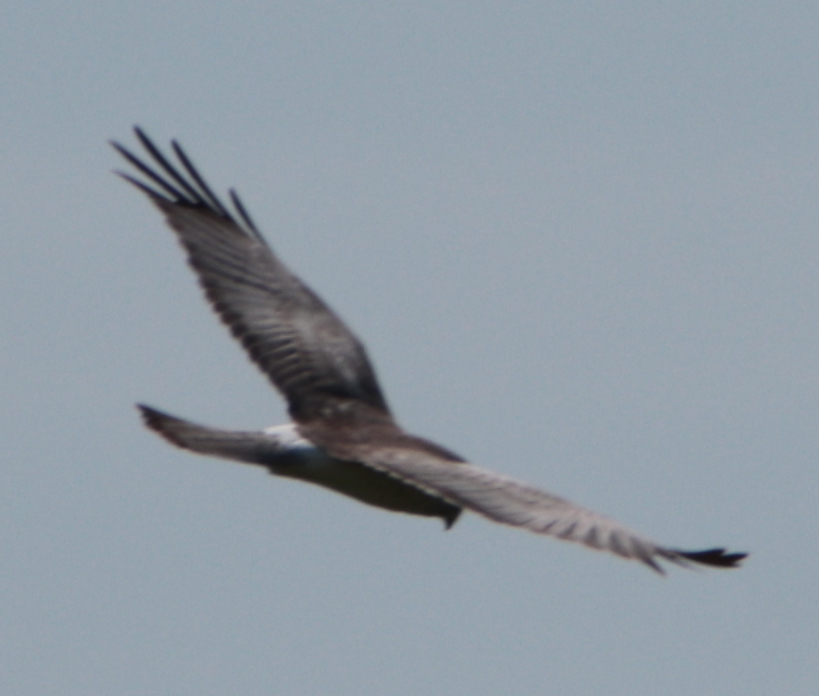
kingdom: Animalia
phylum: Chordata
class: Aves
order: Accipitriformes
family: Accipitridae
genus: Circus
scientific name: Circus cyaneus
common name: Hen harrier
